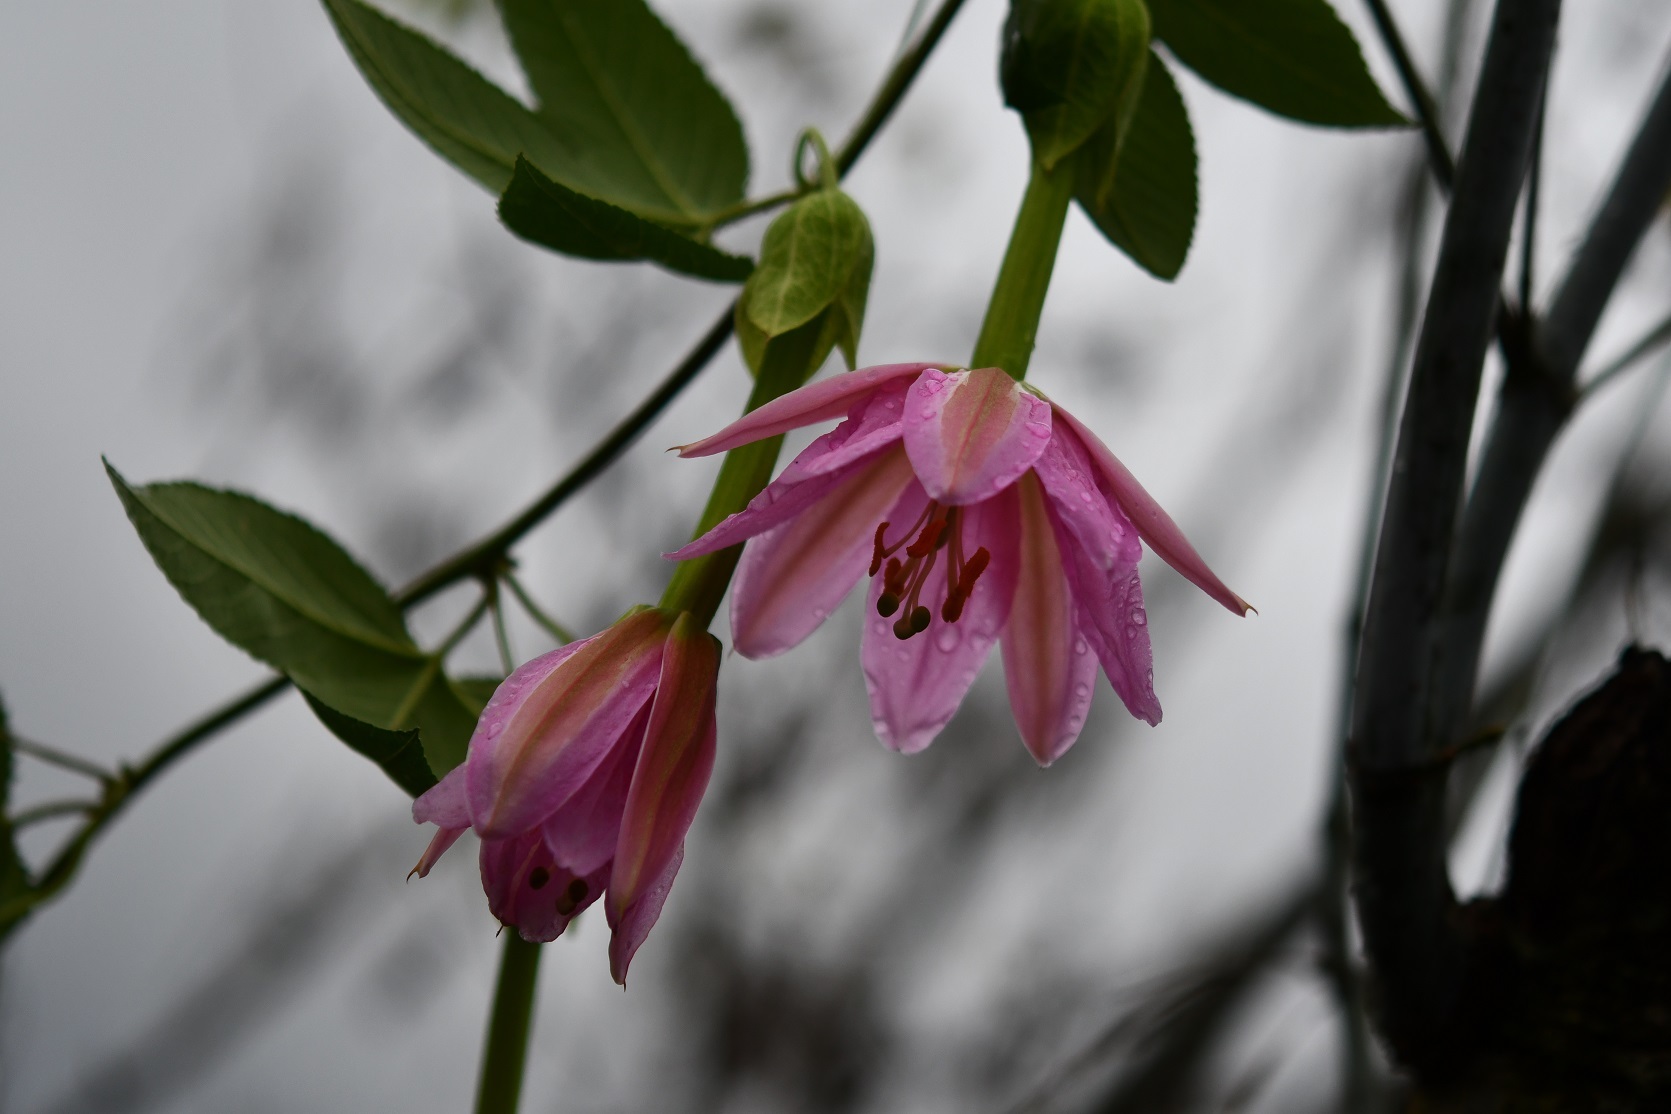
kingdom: Plantae
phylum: Tracheophyta
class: Magnoliopsida
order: Malpighiales
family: Passifloraceae
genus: Passiflora
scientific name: Passiflora tarminiana
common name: Banana poka
